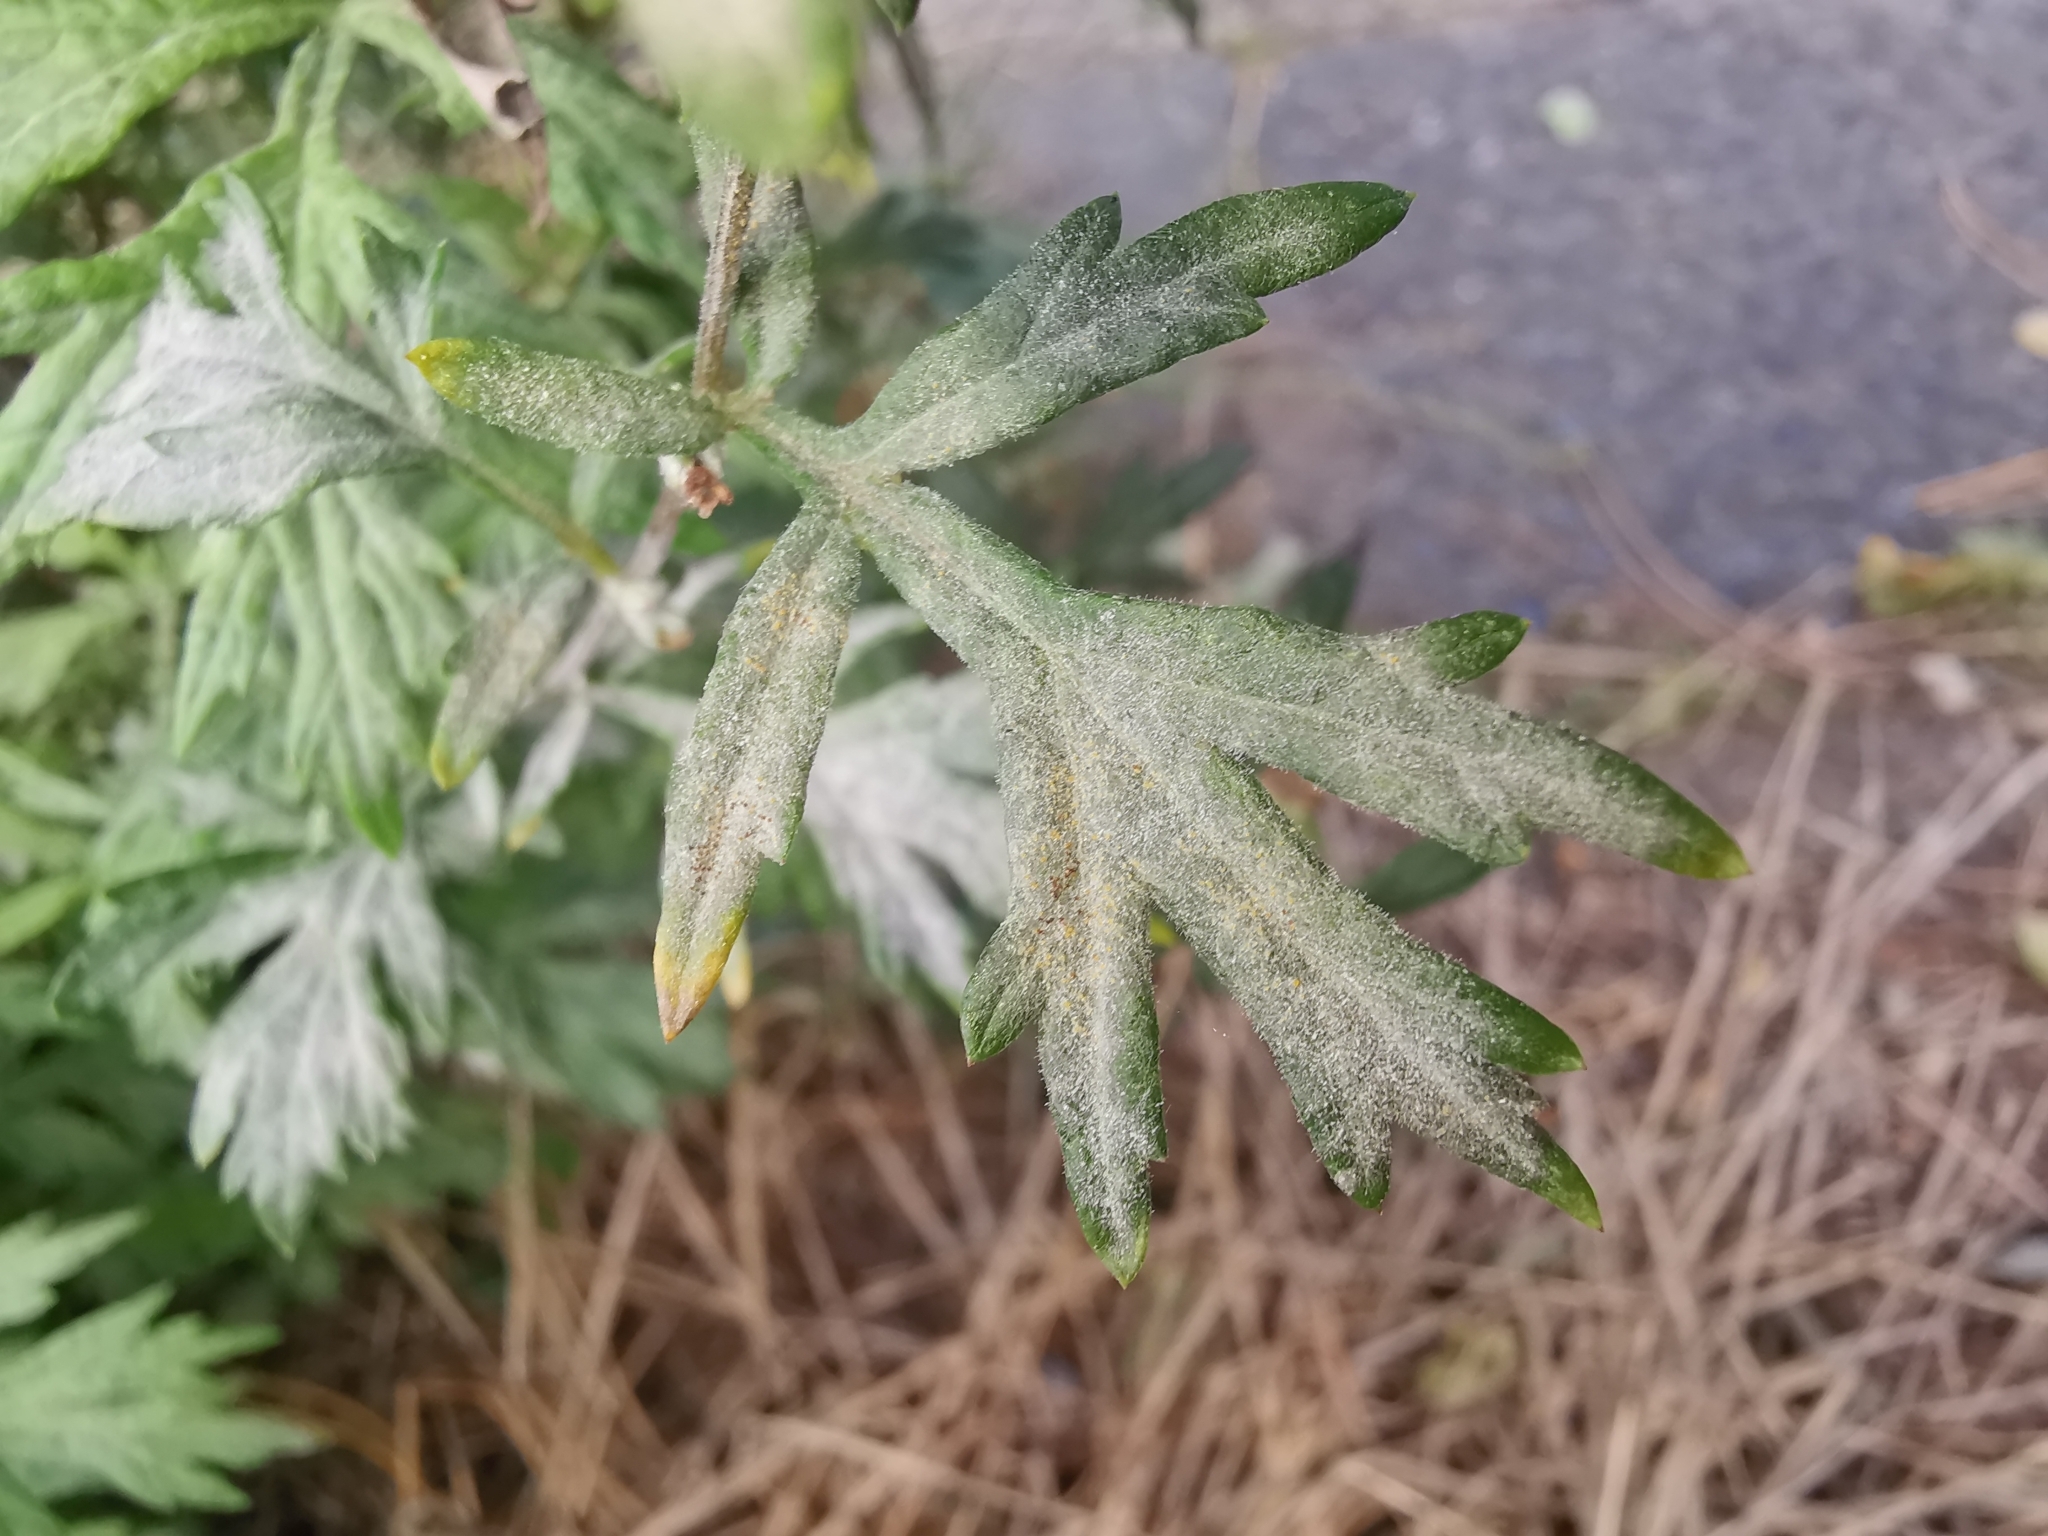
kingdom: Fungi
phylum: Ascomycota
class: Leotiomycetes
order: Helotiales
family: Erysiphaceae
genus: Golovinomyces
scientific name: Golovinomyces artemisiae
